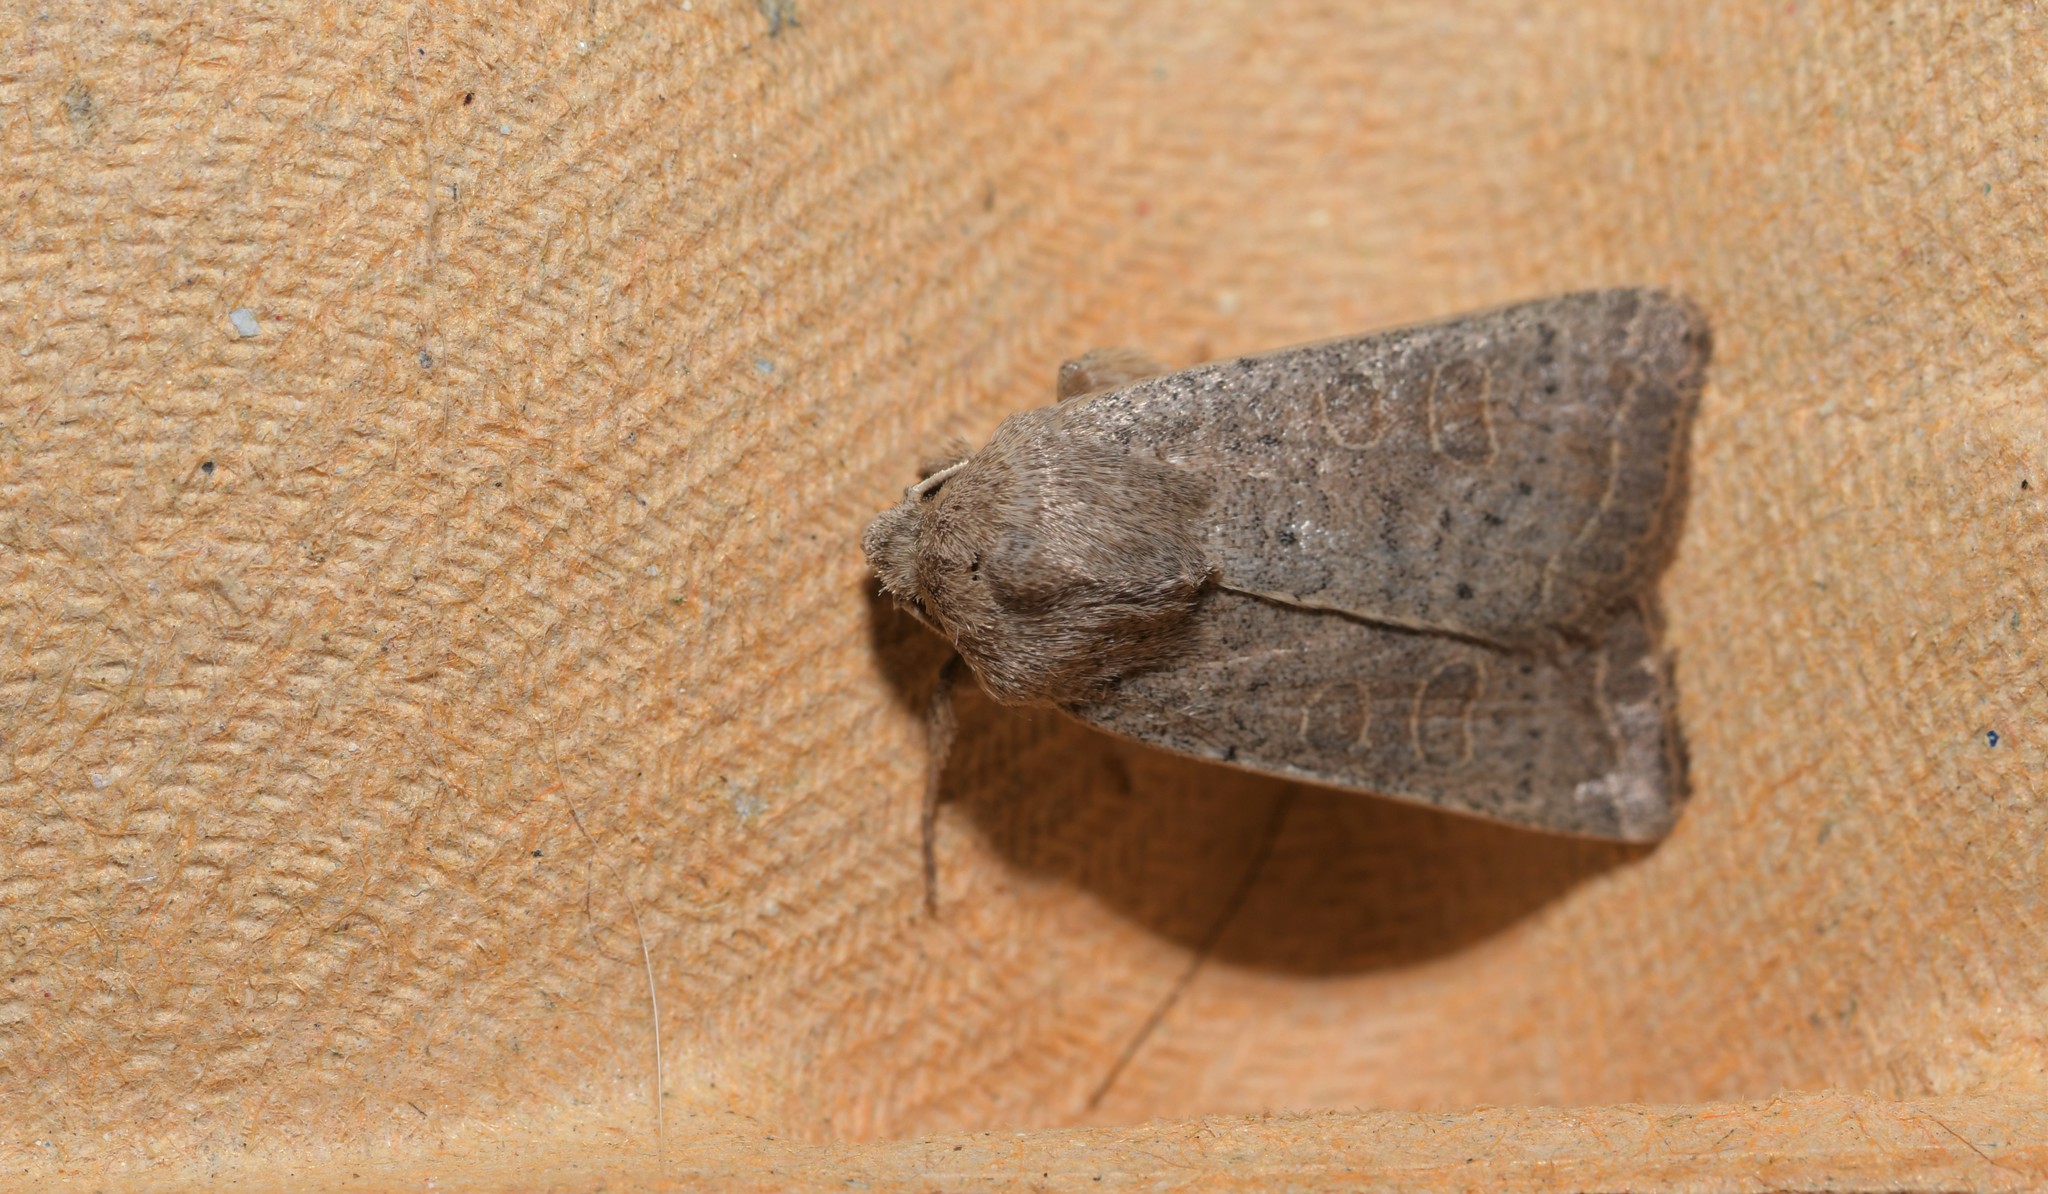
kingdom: Animalia
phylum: Arthropoda
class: Insecta
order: Lepidoptera
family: Noctuidae
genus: Hoplodrina
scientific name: Hoplodrina ambigua
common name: Vine's rustic
